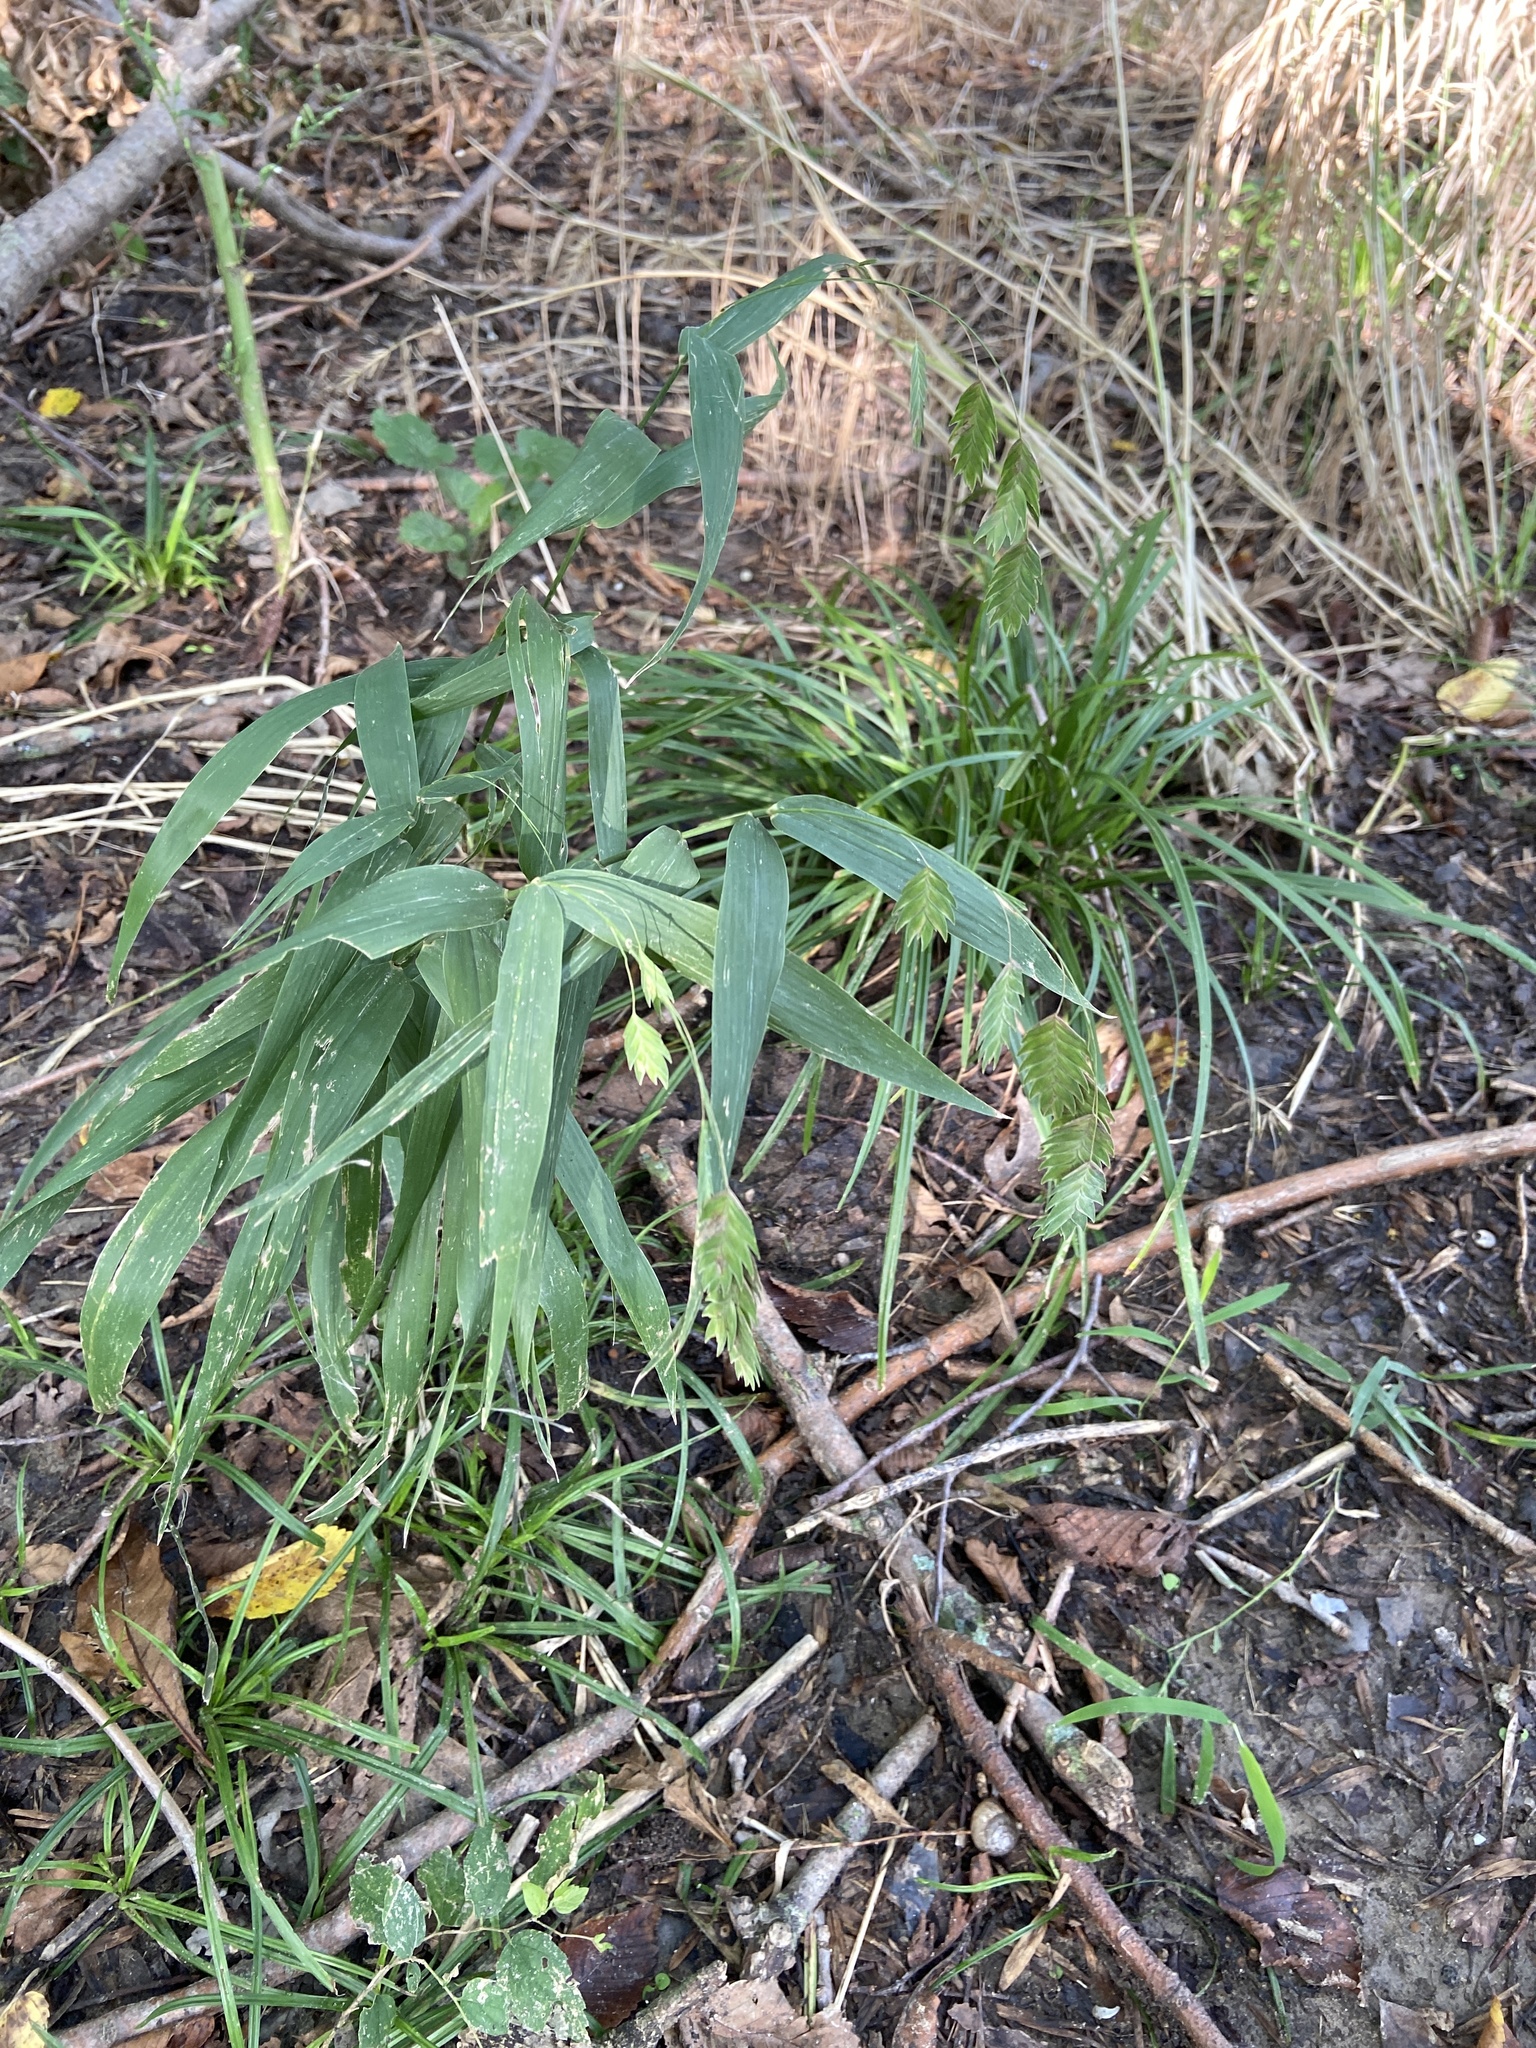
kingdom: Plantae
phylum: Tracheophyta
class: Liliopsida
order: Poales
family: Poaceae
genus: Chasmanthium
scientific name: Chasmanthium latifolium
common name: Broad-leaved chasmanthium
